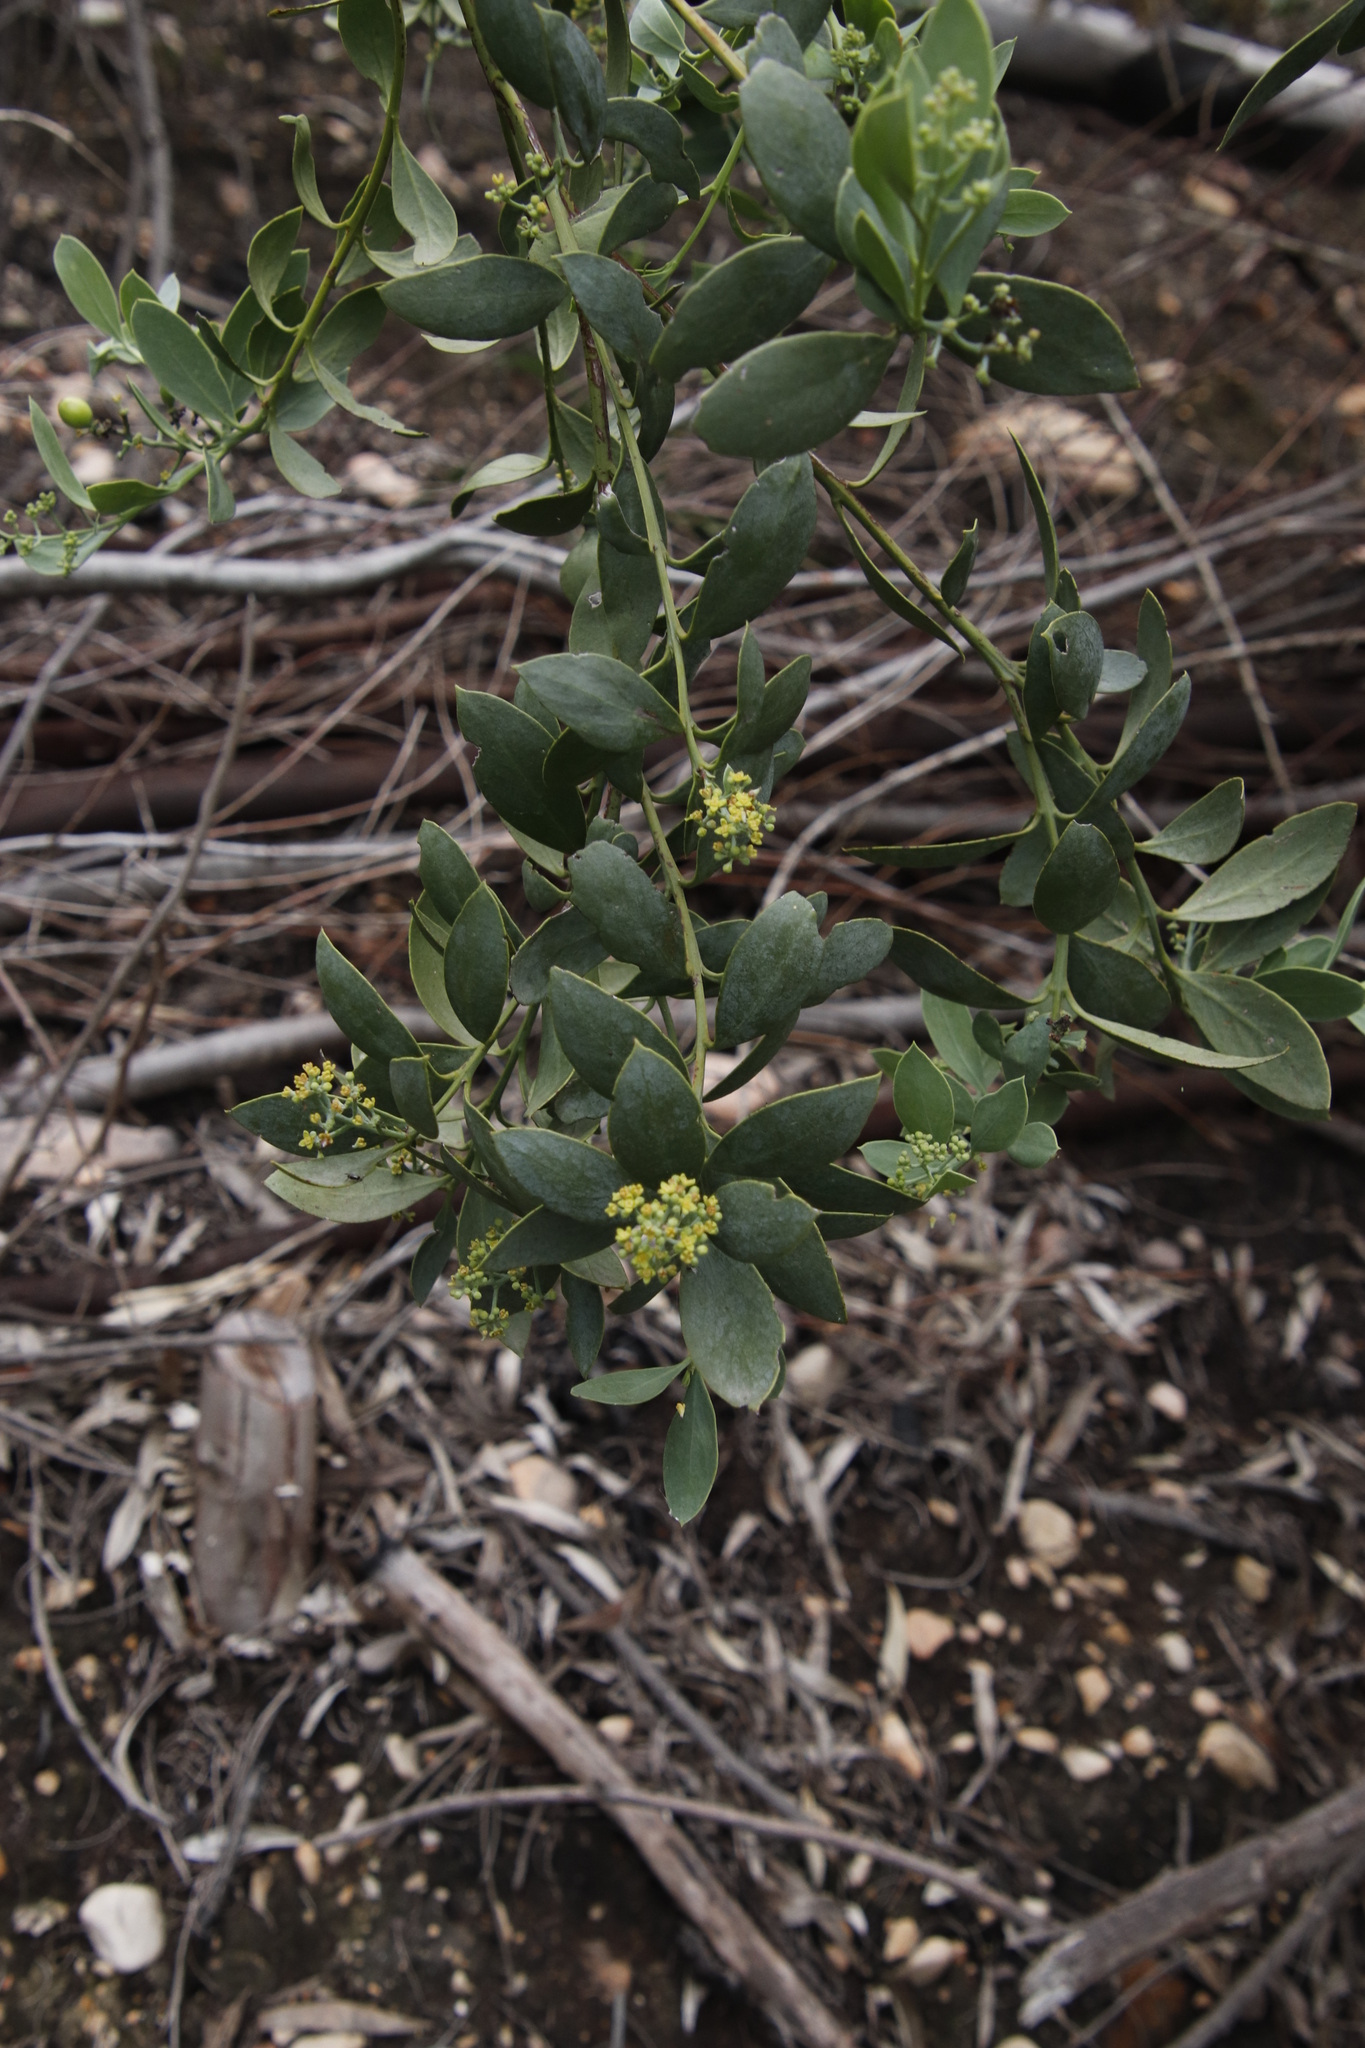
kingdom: Plantae
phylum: Tracheophyta
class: Magnoliopsida
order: Santalales
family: Santalaceae
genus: Osyris
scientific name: Osyris compressa
